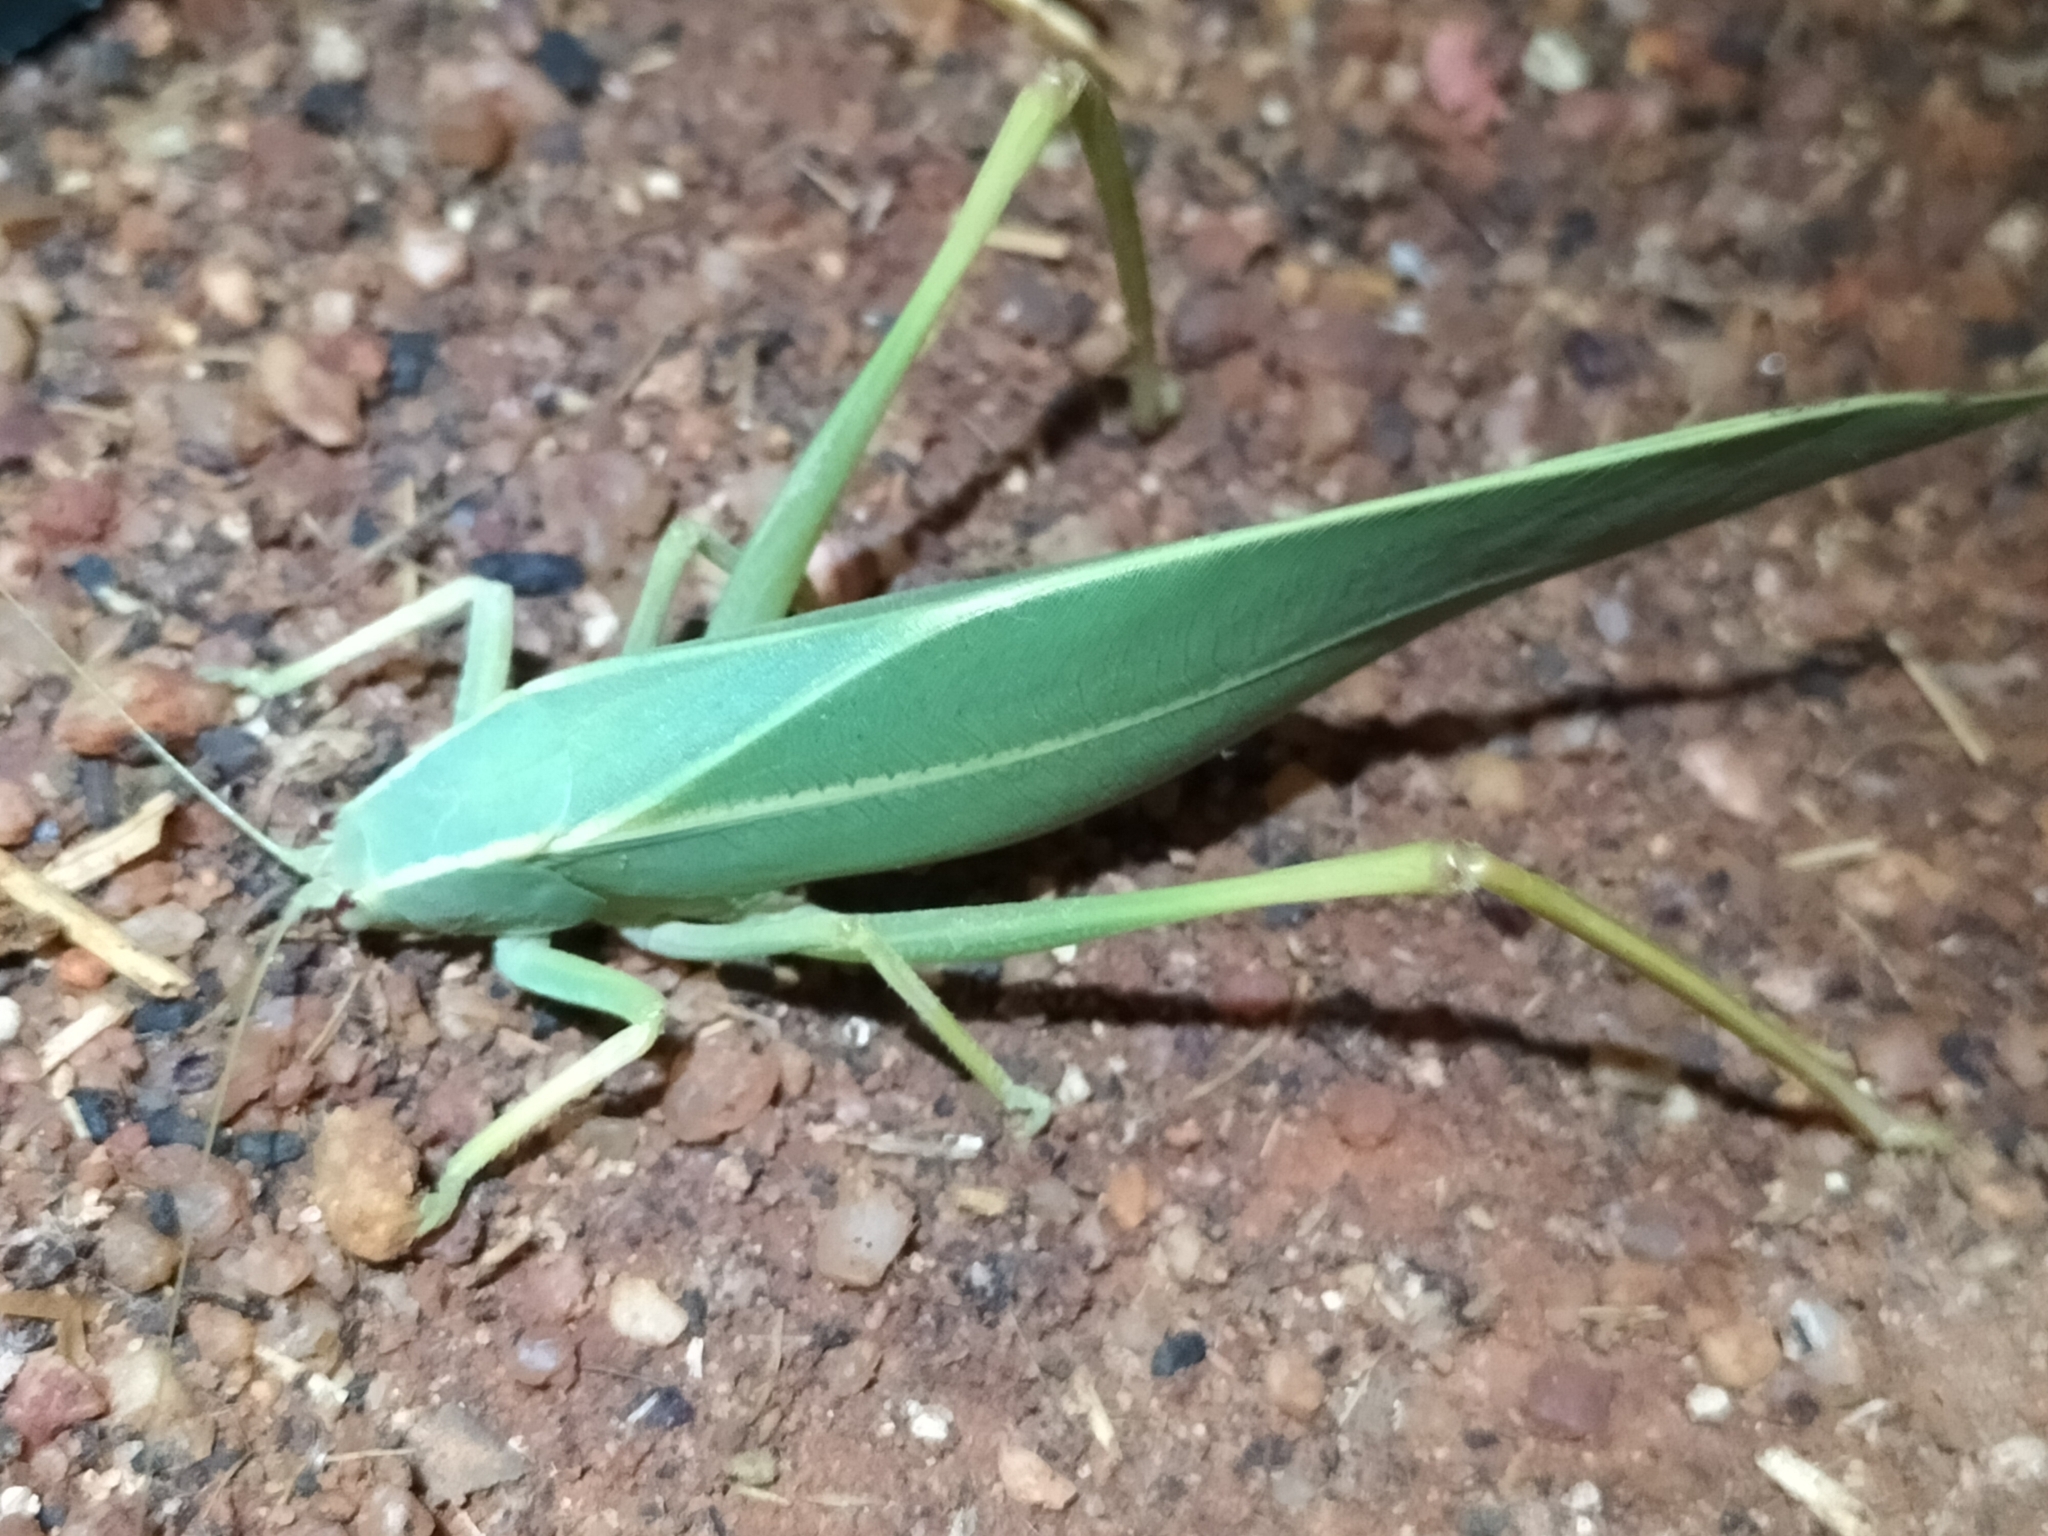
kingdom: Animalia
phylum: Arthropoda
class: Insecta
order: Orthoptera
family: Tettigoniidae
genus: Torbia
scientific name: Torbia elderi
